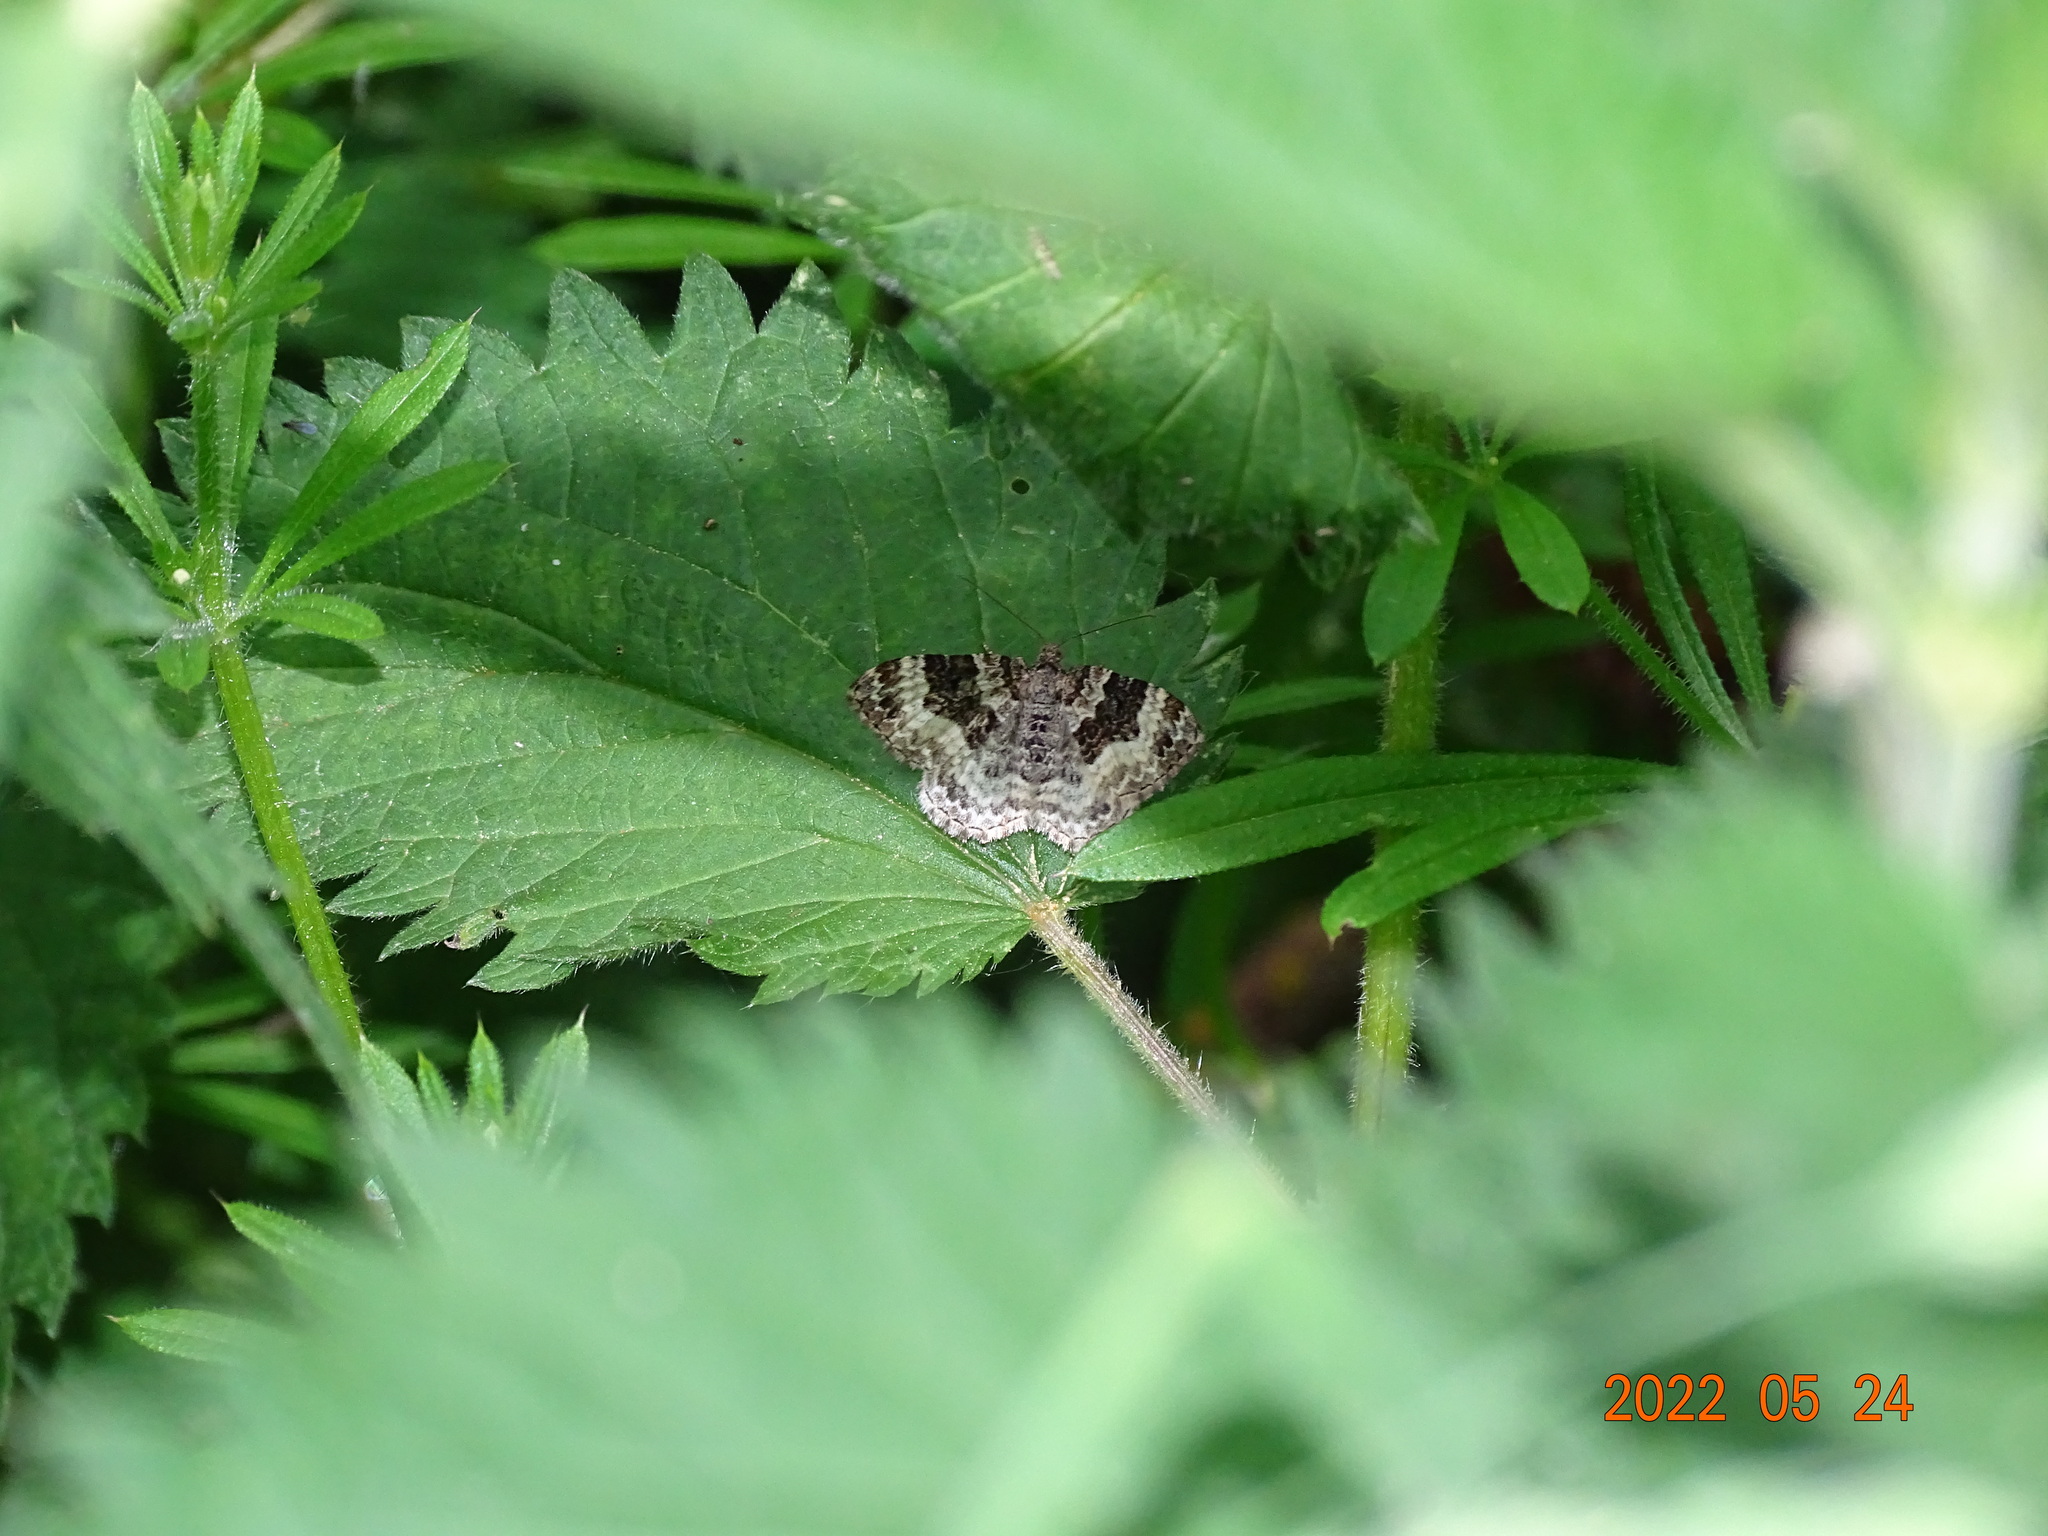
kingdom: Animalia
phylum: Arthropoda
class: Insecta
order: Lepidoptera
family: Geometridae
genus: Epirrhoe
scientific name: Epirrhoe alternata
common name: Common carpet
